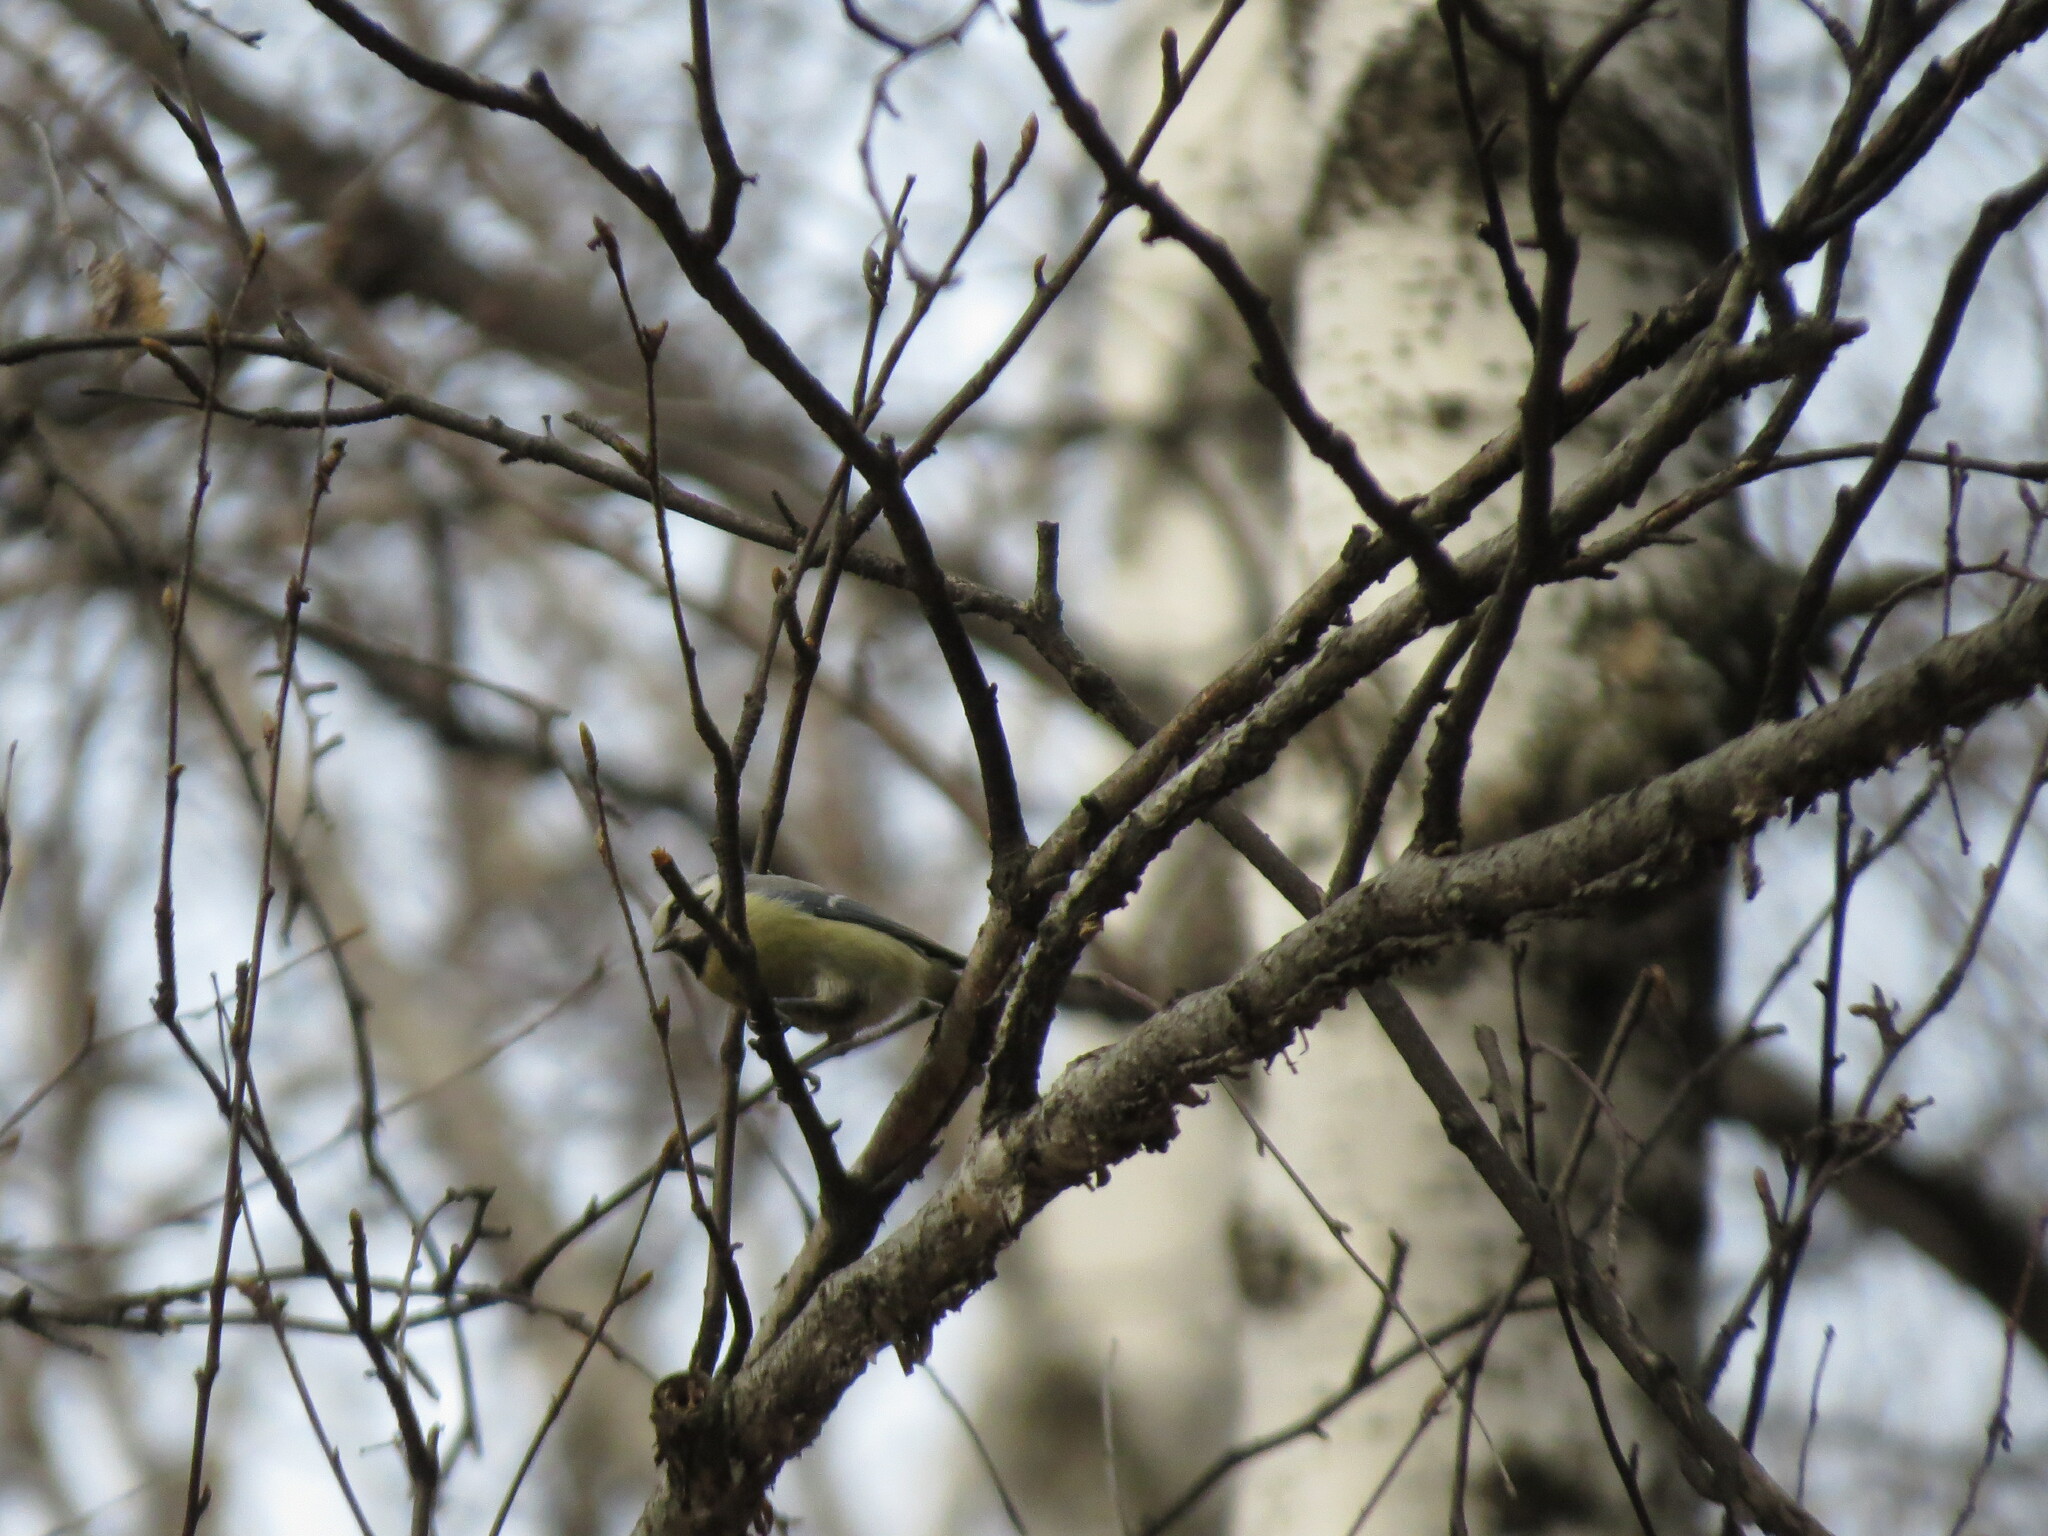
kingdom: Animalia
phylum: Chordata
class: Aves
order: Passeriformes
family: Paridae
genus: Cyanistes
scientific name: Cyanistes caeruleus
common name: Eurasian blue tit
